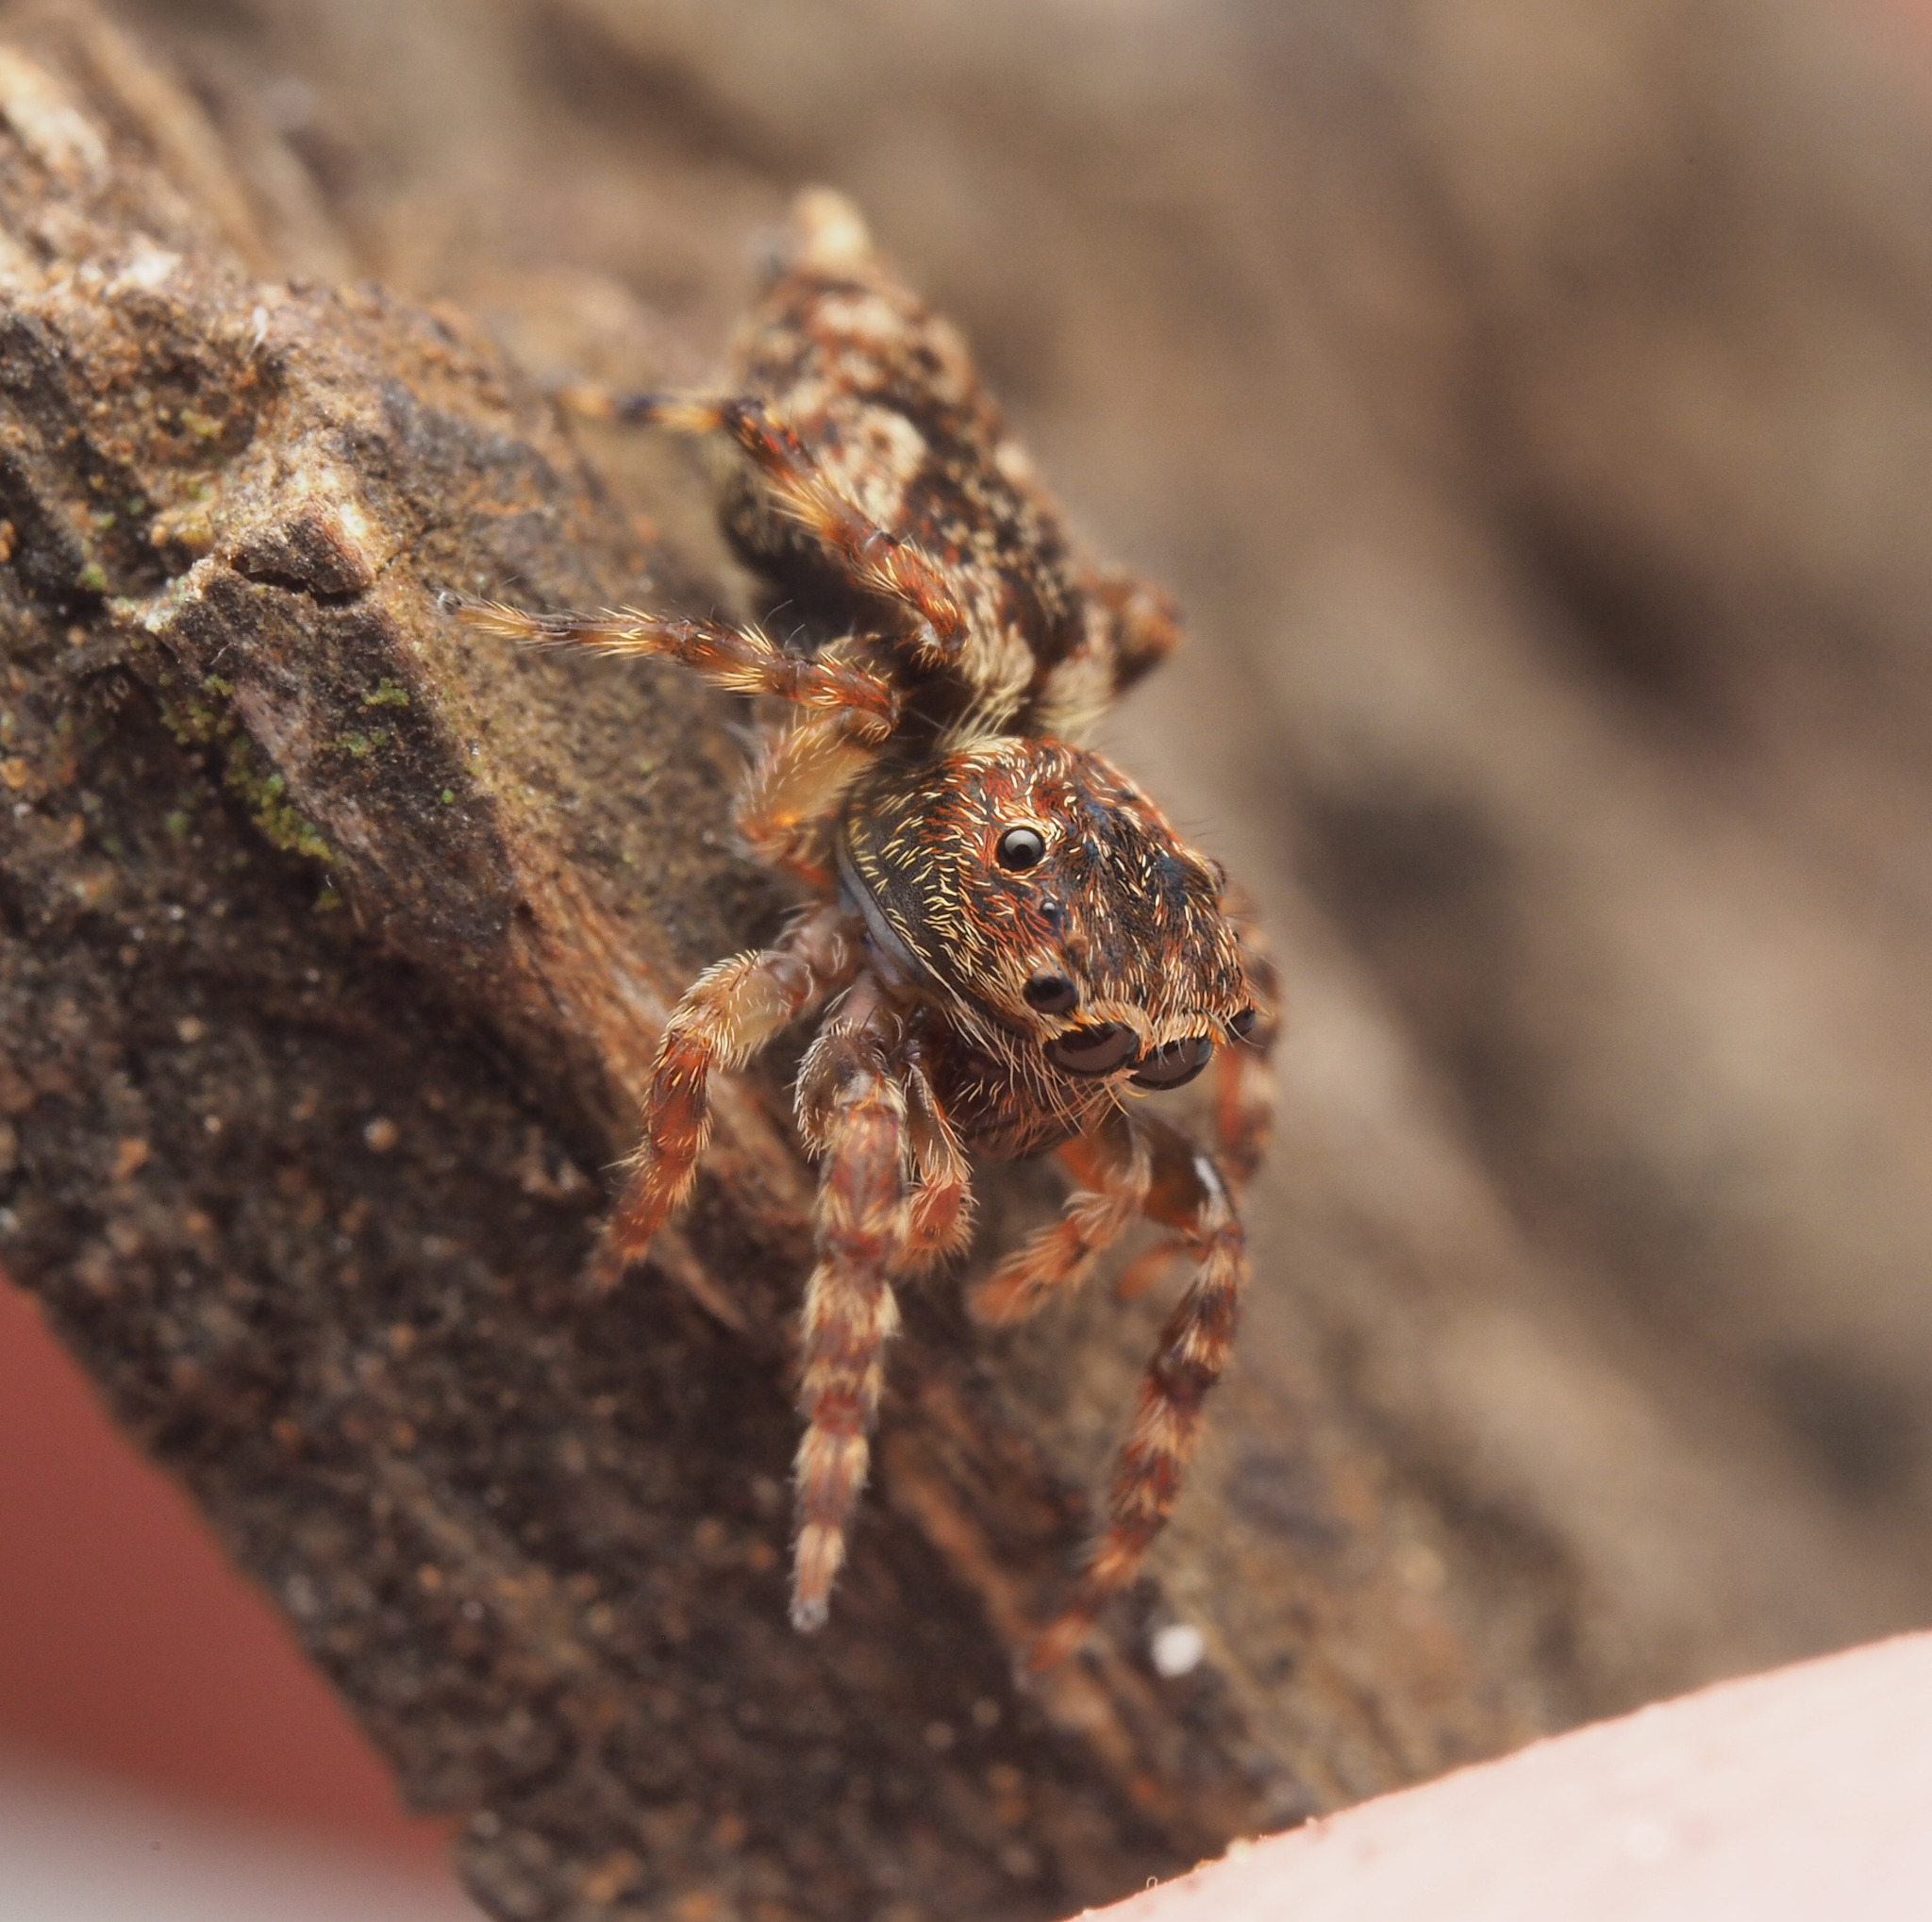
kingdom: Animalia
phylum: Arthropoda
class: Arachnida
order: Araneae
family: Salticidae
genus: Apricia
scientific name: Apricia
